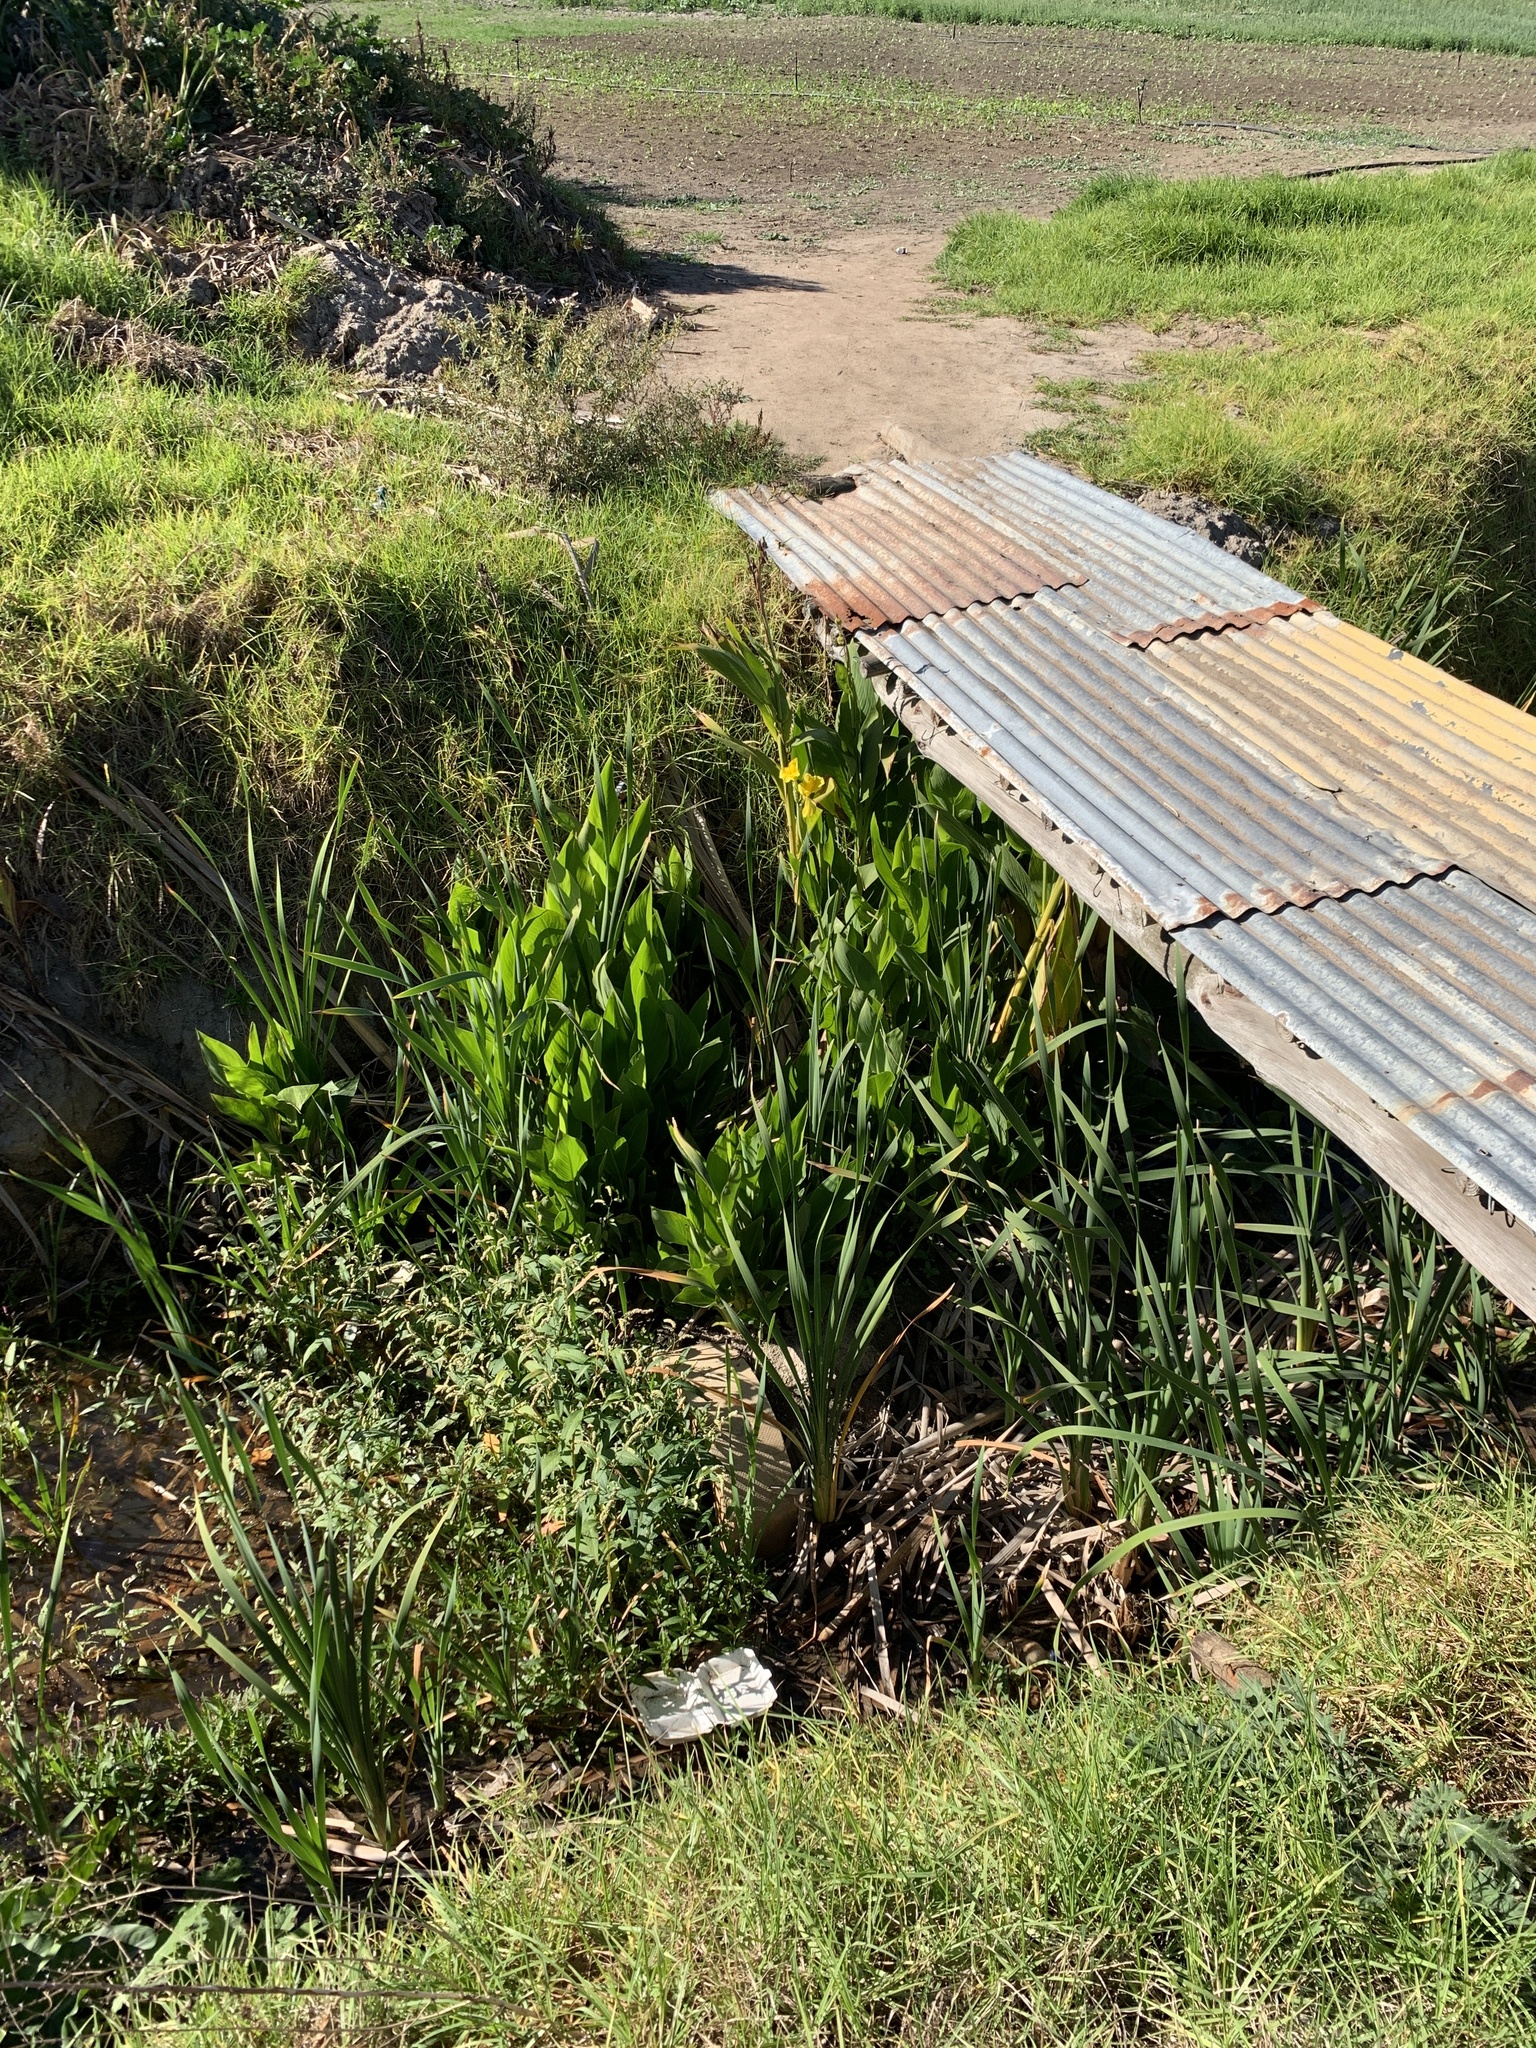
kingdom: Plantae
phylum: Tracheophyta
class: Liliopsida
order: Zingiberales
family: Cannaceae
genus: Canna
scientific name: Canna hybrida
